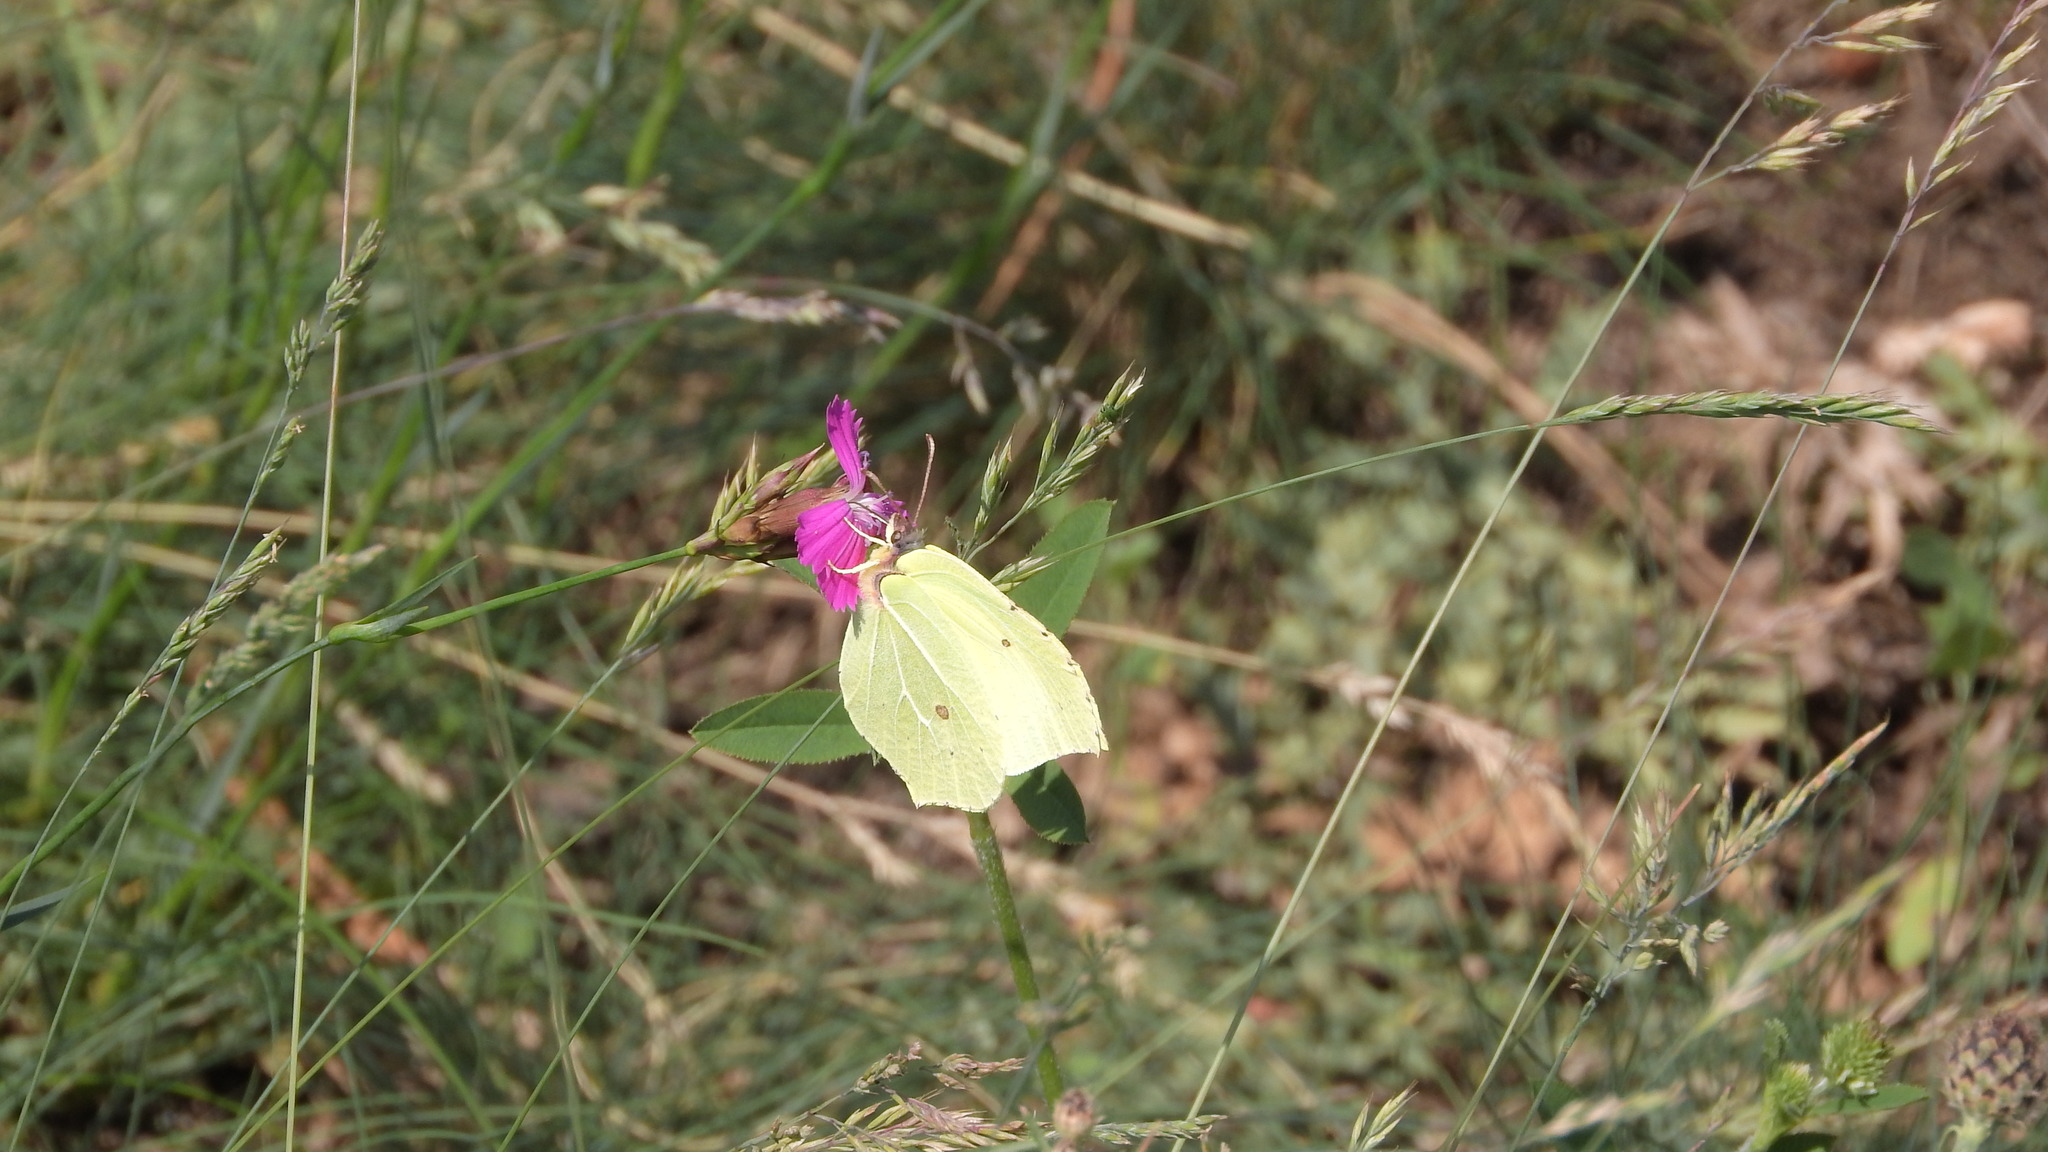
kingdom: Animalia
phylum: Arthropoda
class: Insecta
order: Lepidoptera
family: Pieridae
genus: Gonepteryx
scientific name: Gonepteryx rhamni
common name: Brimstone
